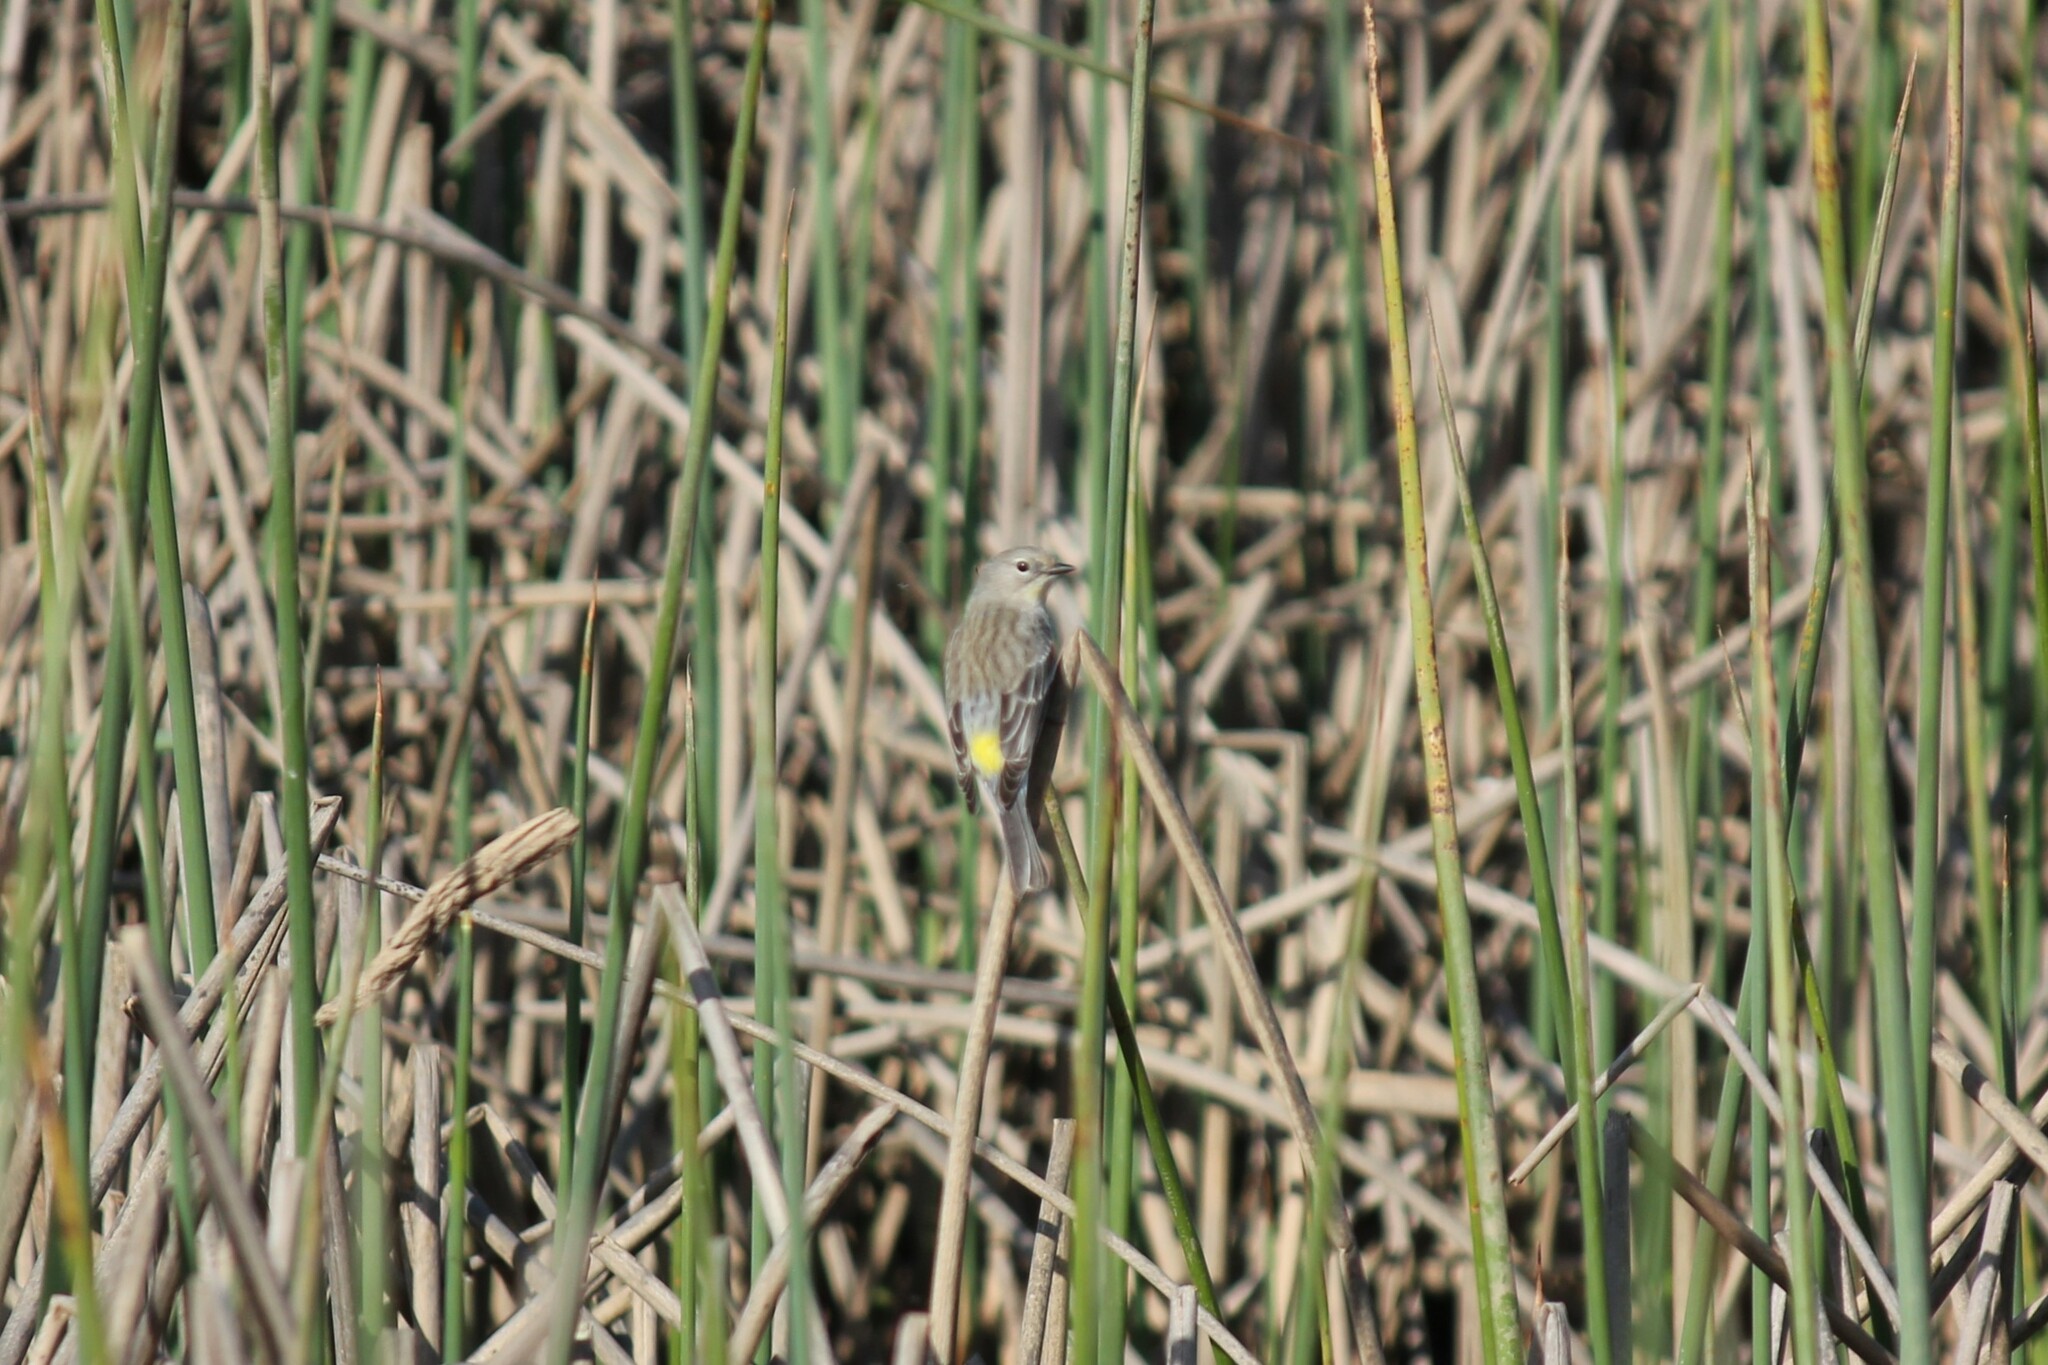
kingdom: Animalia
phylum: Chordata
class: Aves
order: Passeriformes
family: Parulidae
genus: Setophaga
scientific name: Setophaga coronata
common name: Myrtle warbler
